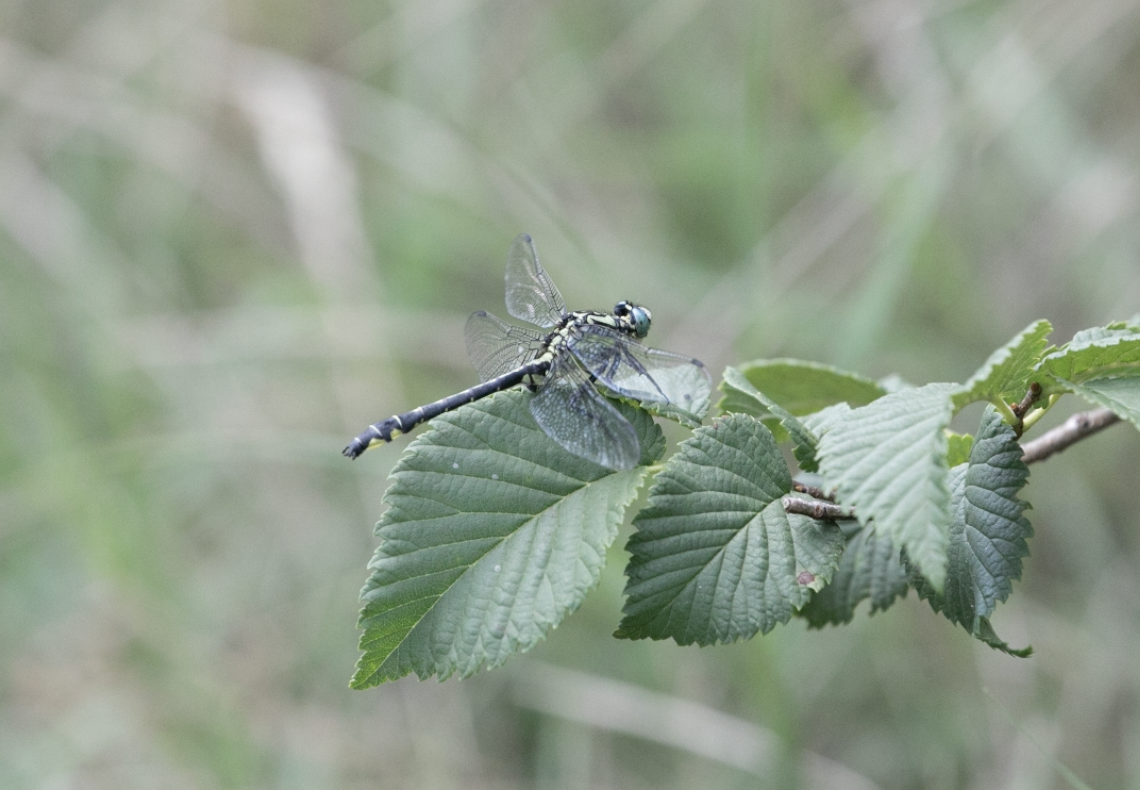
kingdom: Animalia
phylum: Arthropoda
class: Insecta
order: Odonata
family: Gomphidae
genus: Gomphus
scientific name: Gomphus vulgatissimus
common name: Club-tailed dragonfly
